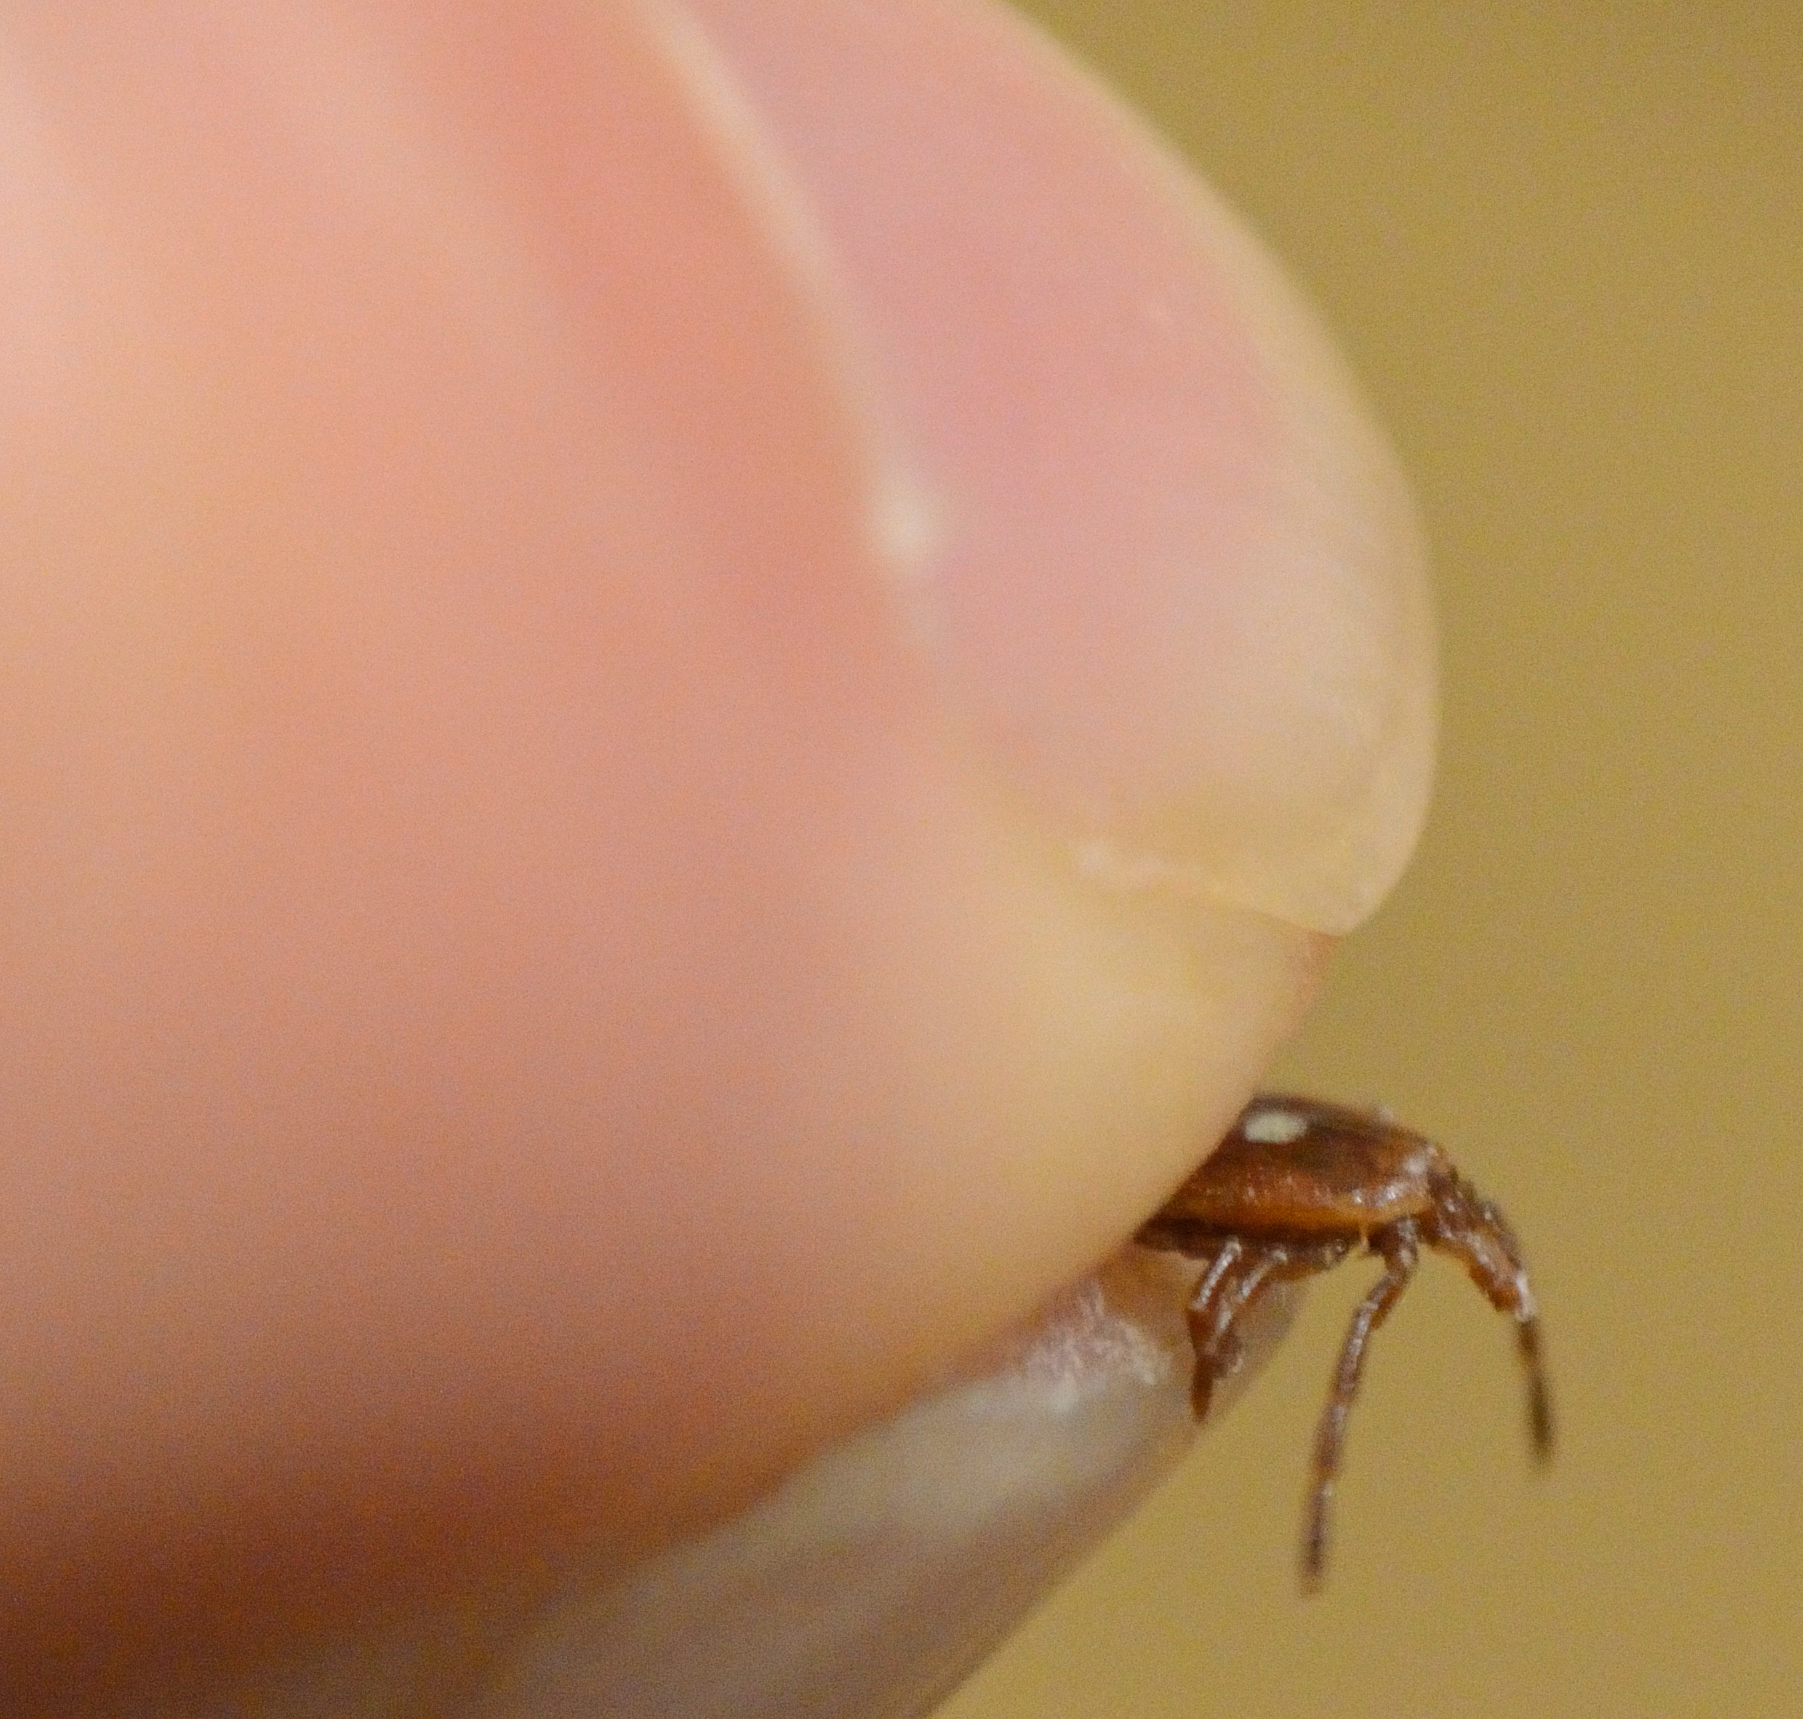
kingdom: Animalia
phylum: Arthropoda
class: Arachnida
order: Ixodida
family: Ixodidae
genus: Amblyomma
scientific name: Amblyomma americanum
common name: Lone star tick
